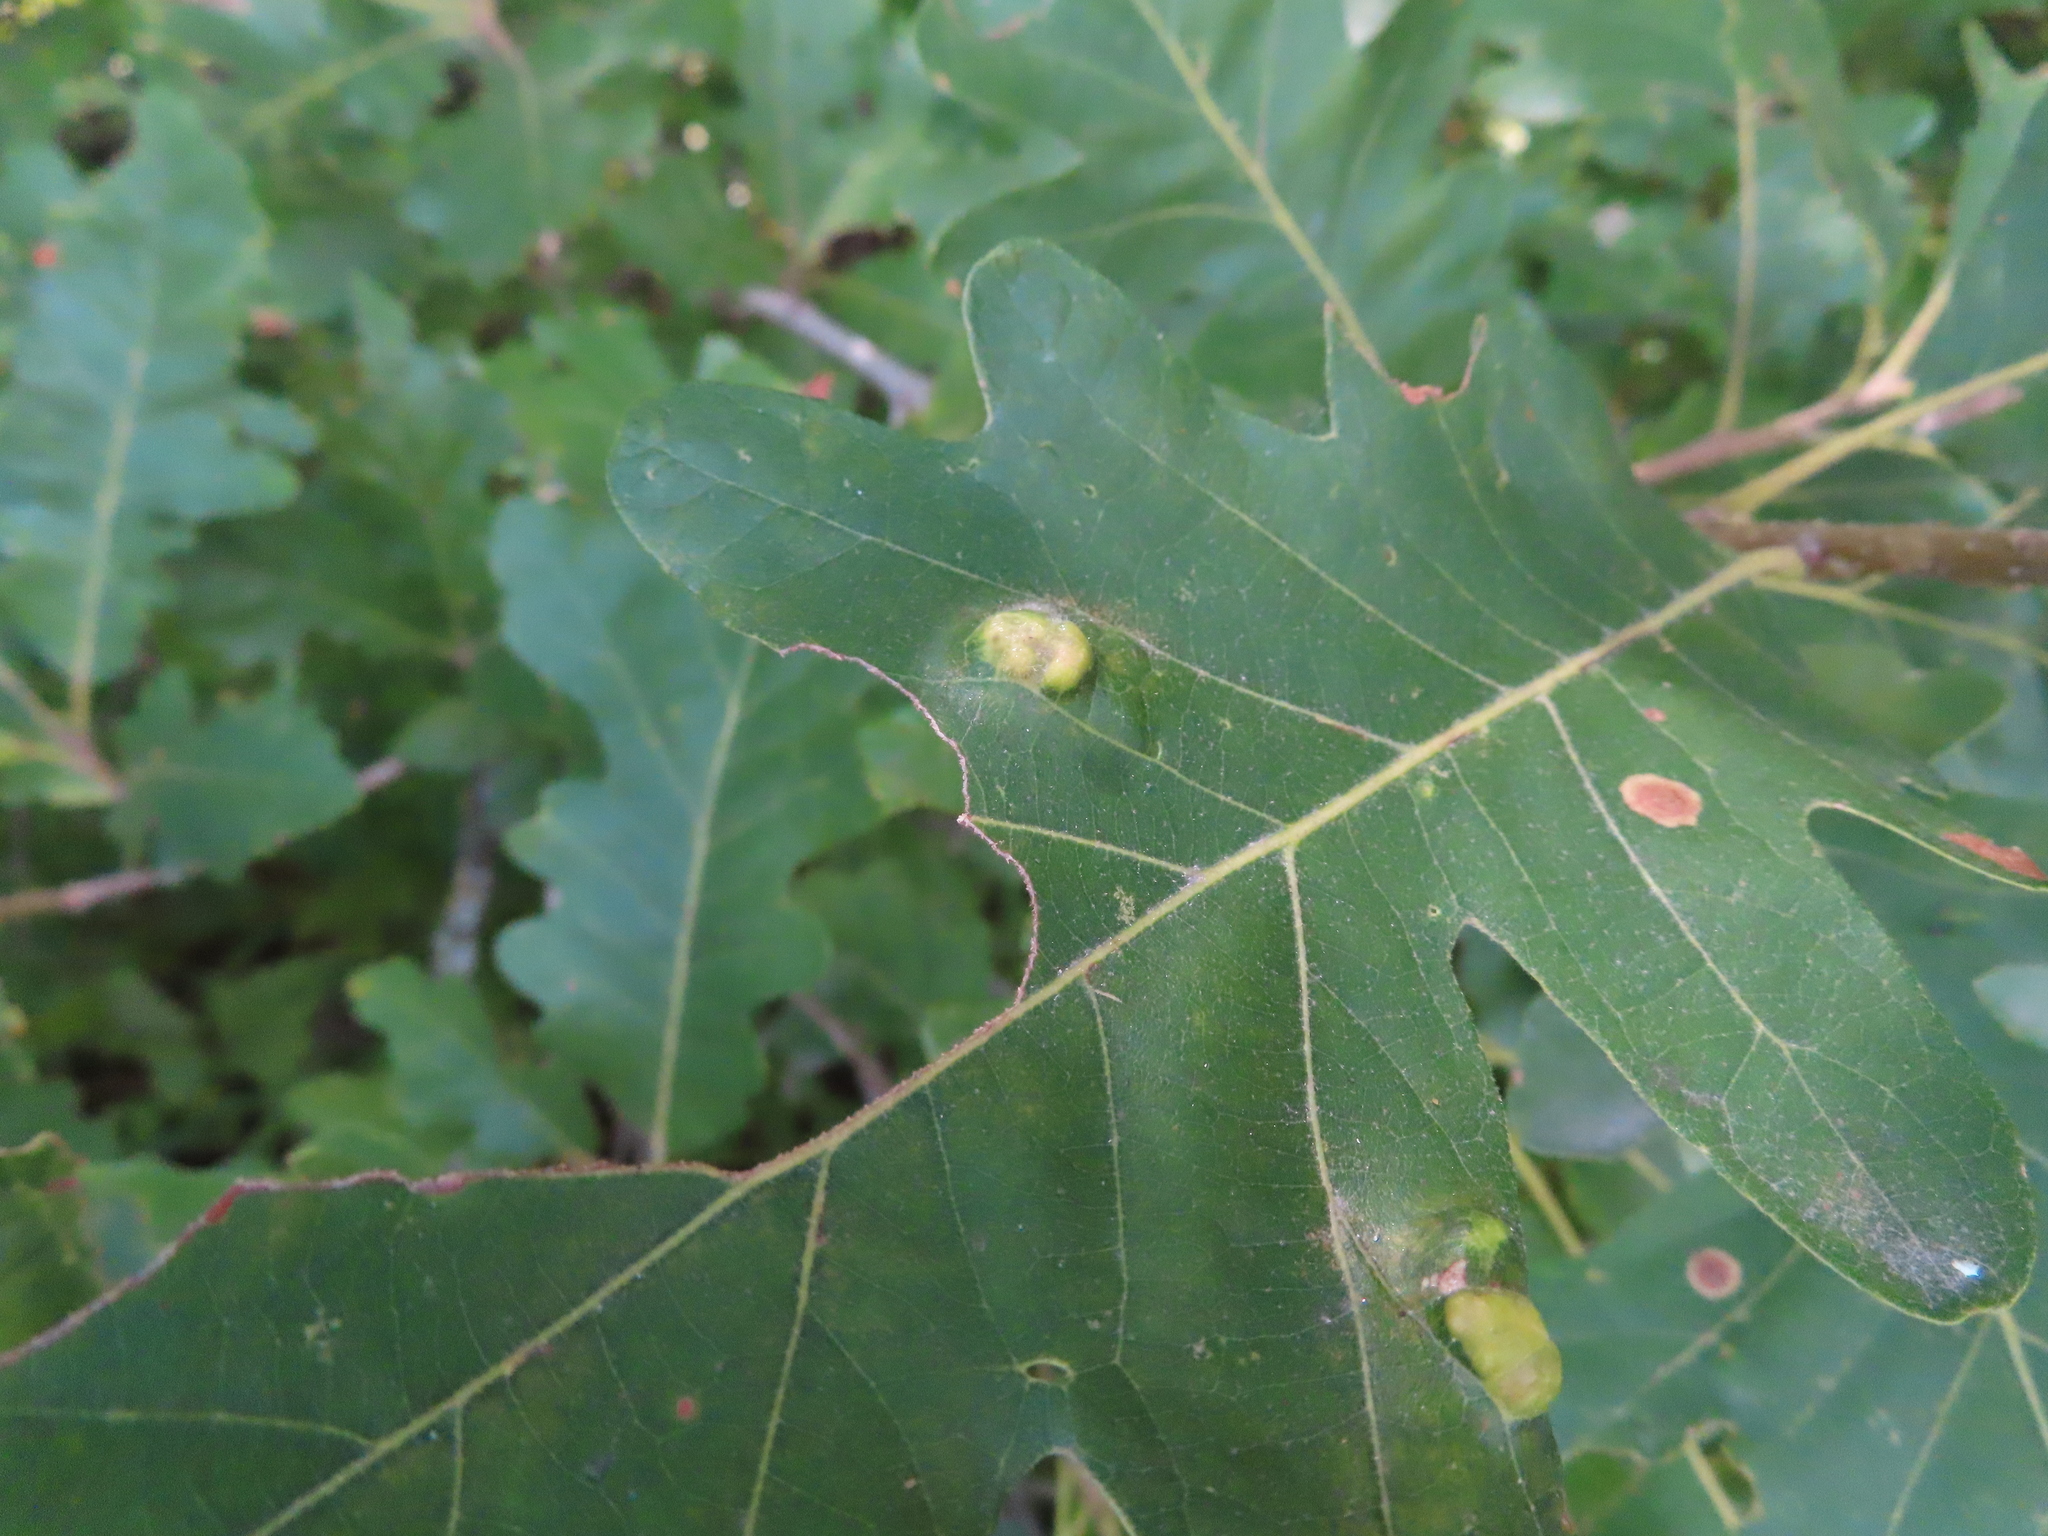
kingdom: Animalia
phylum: Arthropoda
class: Arachnida
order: Trombidiformes
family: Eriophyidae
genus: Aceria
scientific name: Aceria
